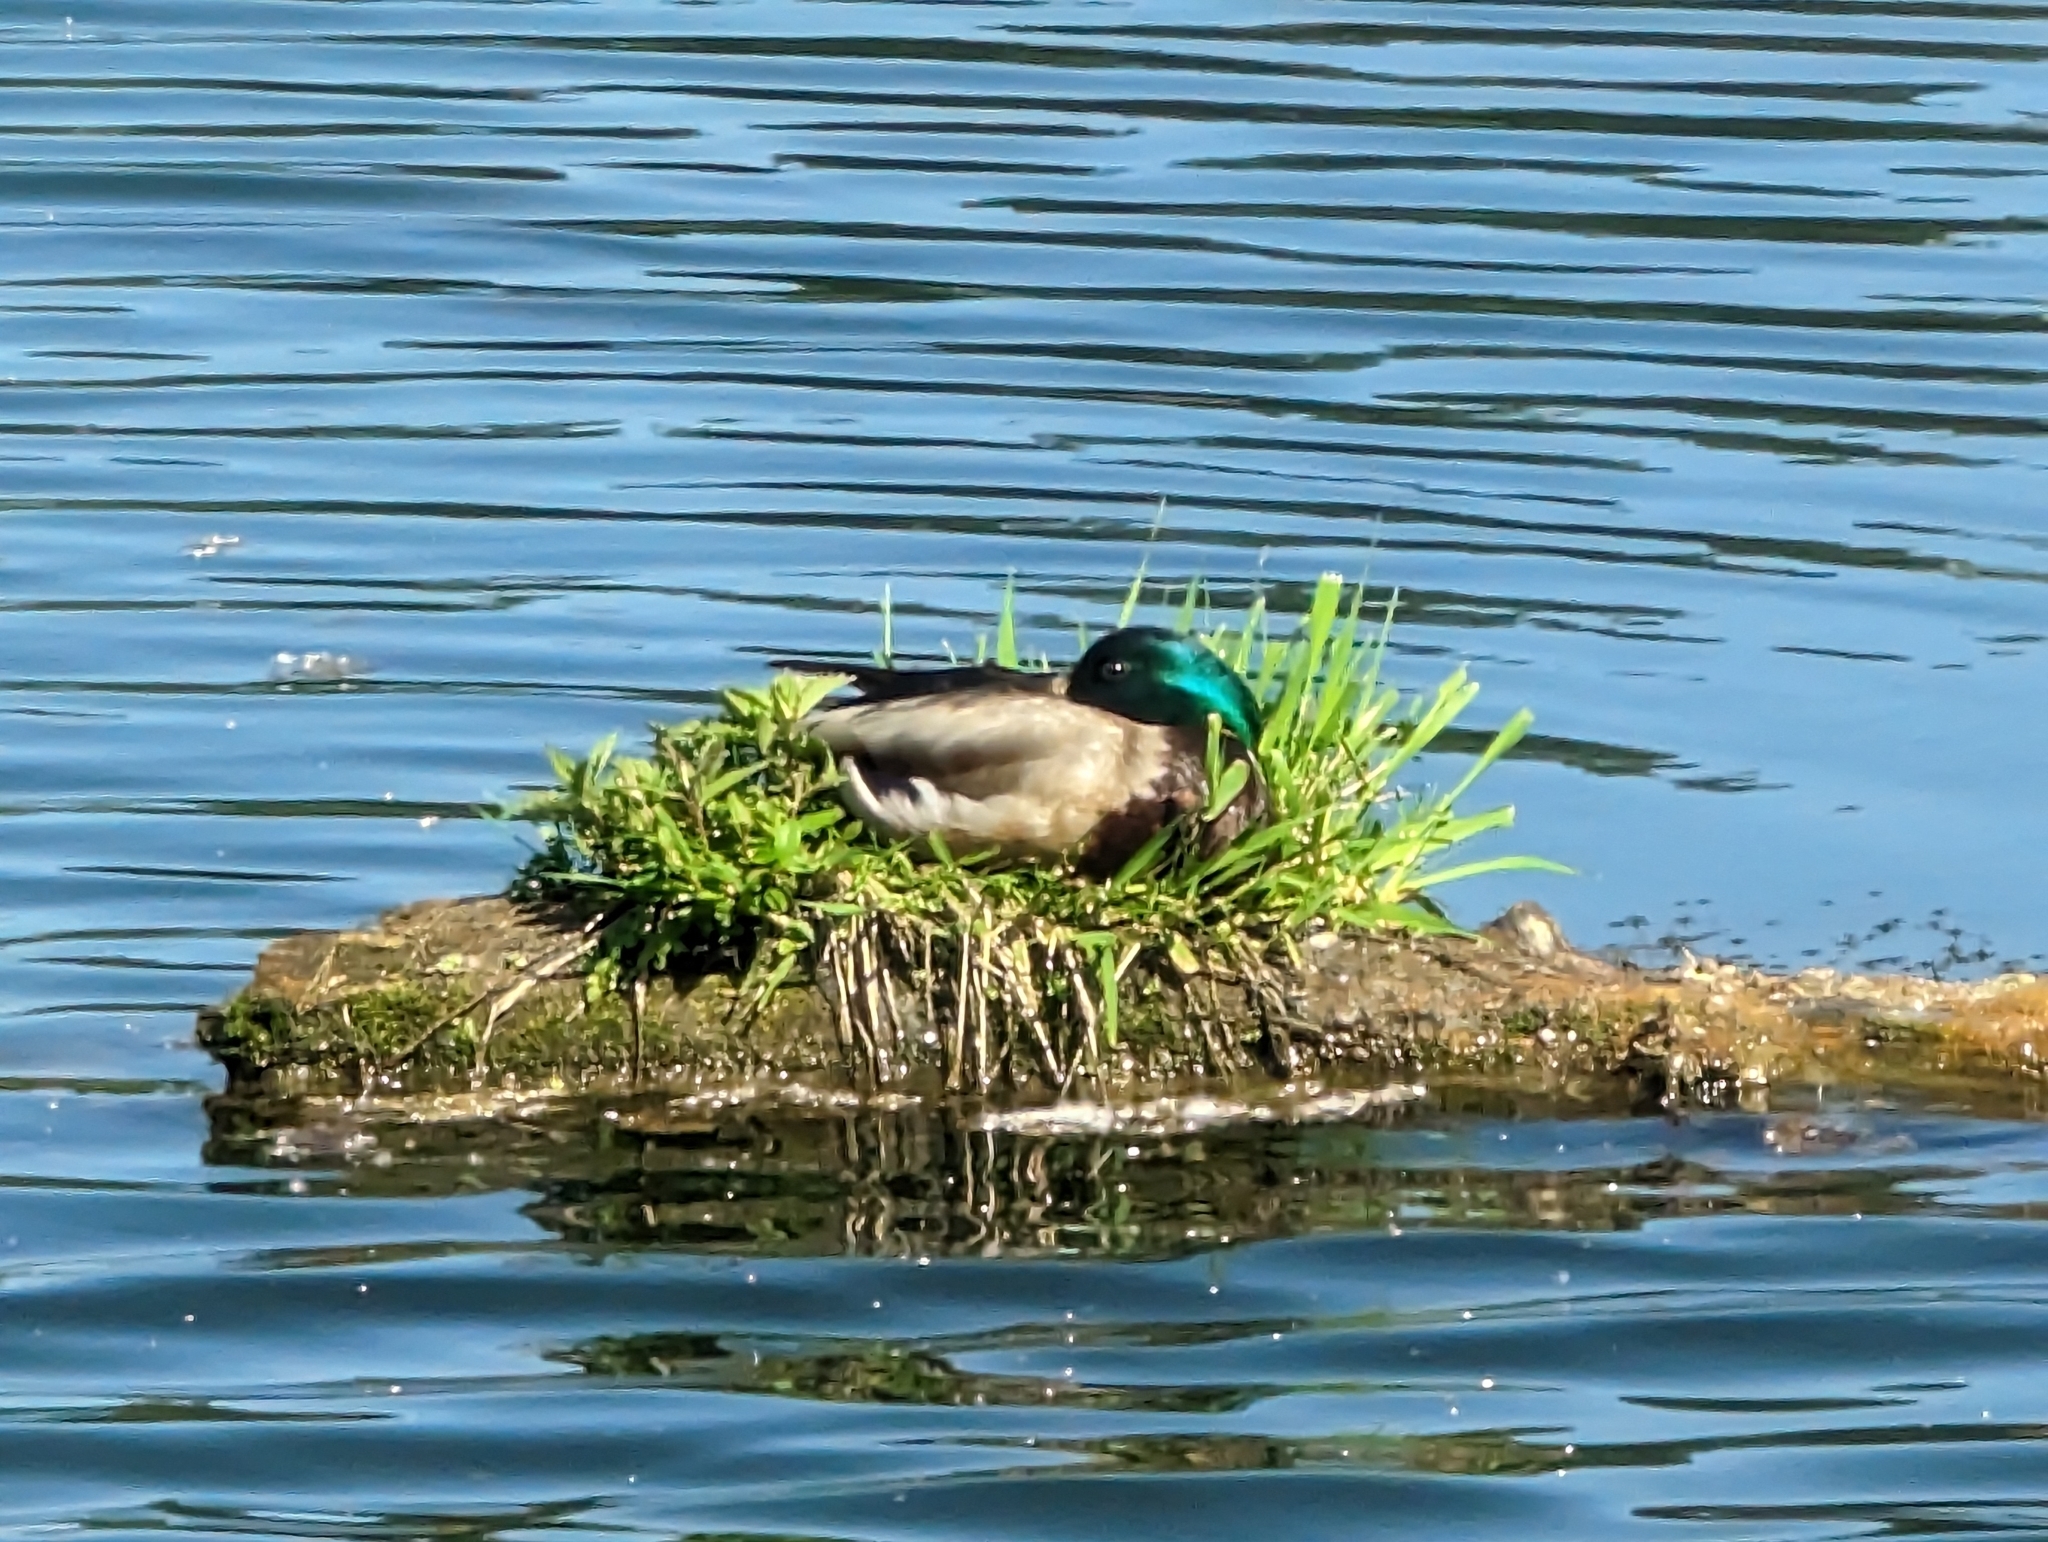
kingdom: Animalia
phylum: Chordata
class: Aves
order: Anseriformes
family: Anatidae
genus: Anas
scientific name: Anas platyrhynchos
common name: Mallard
